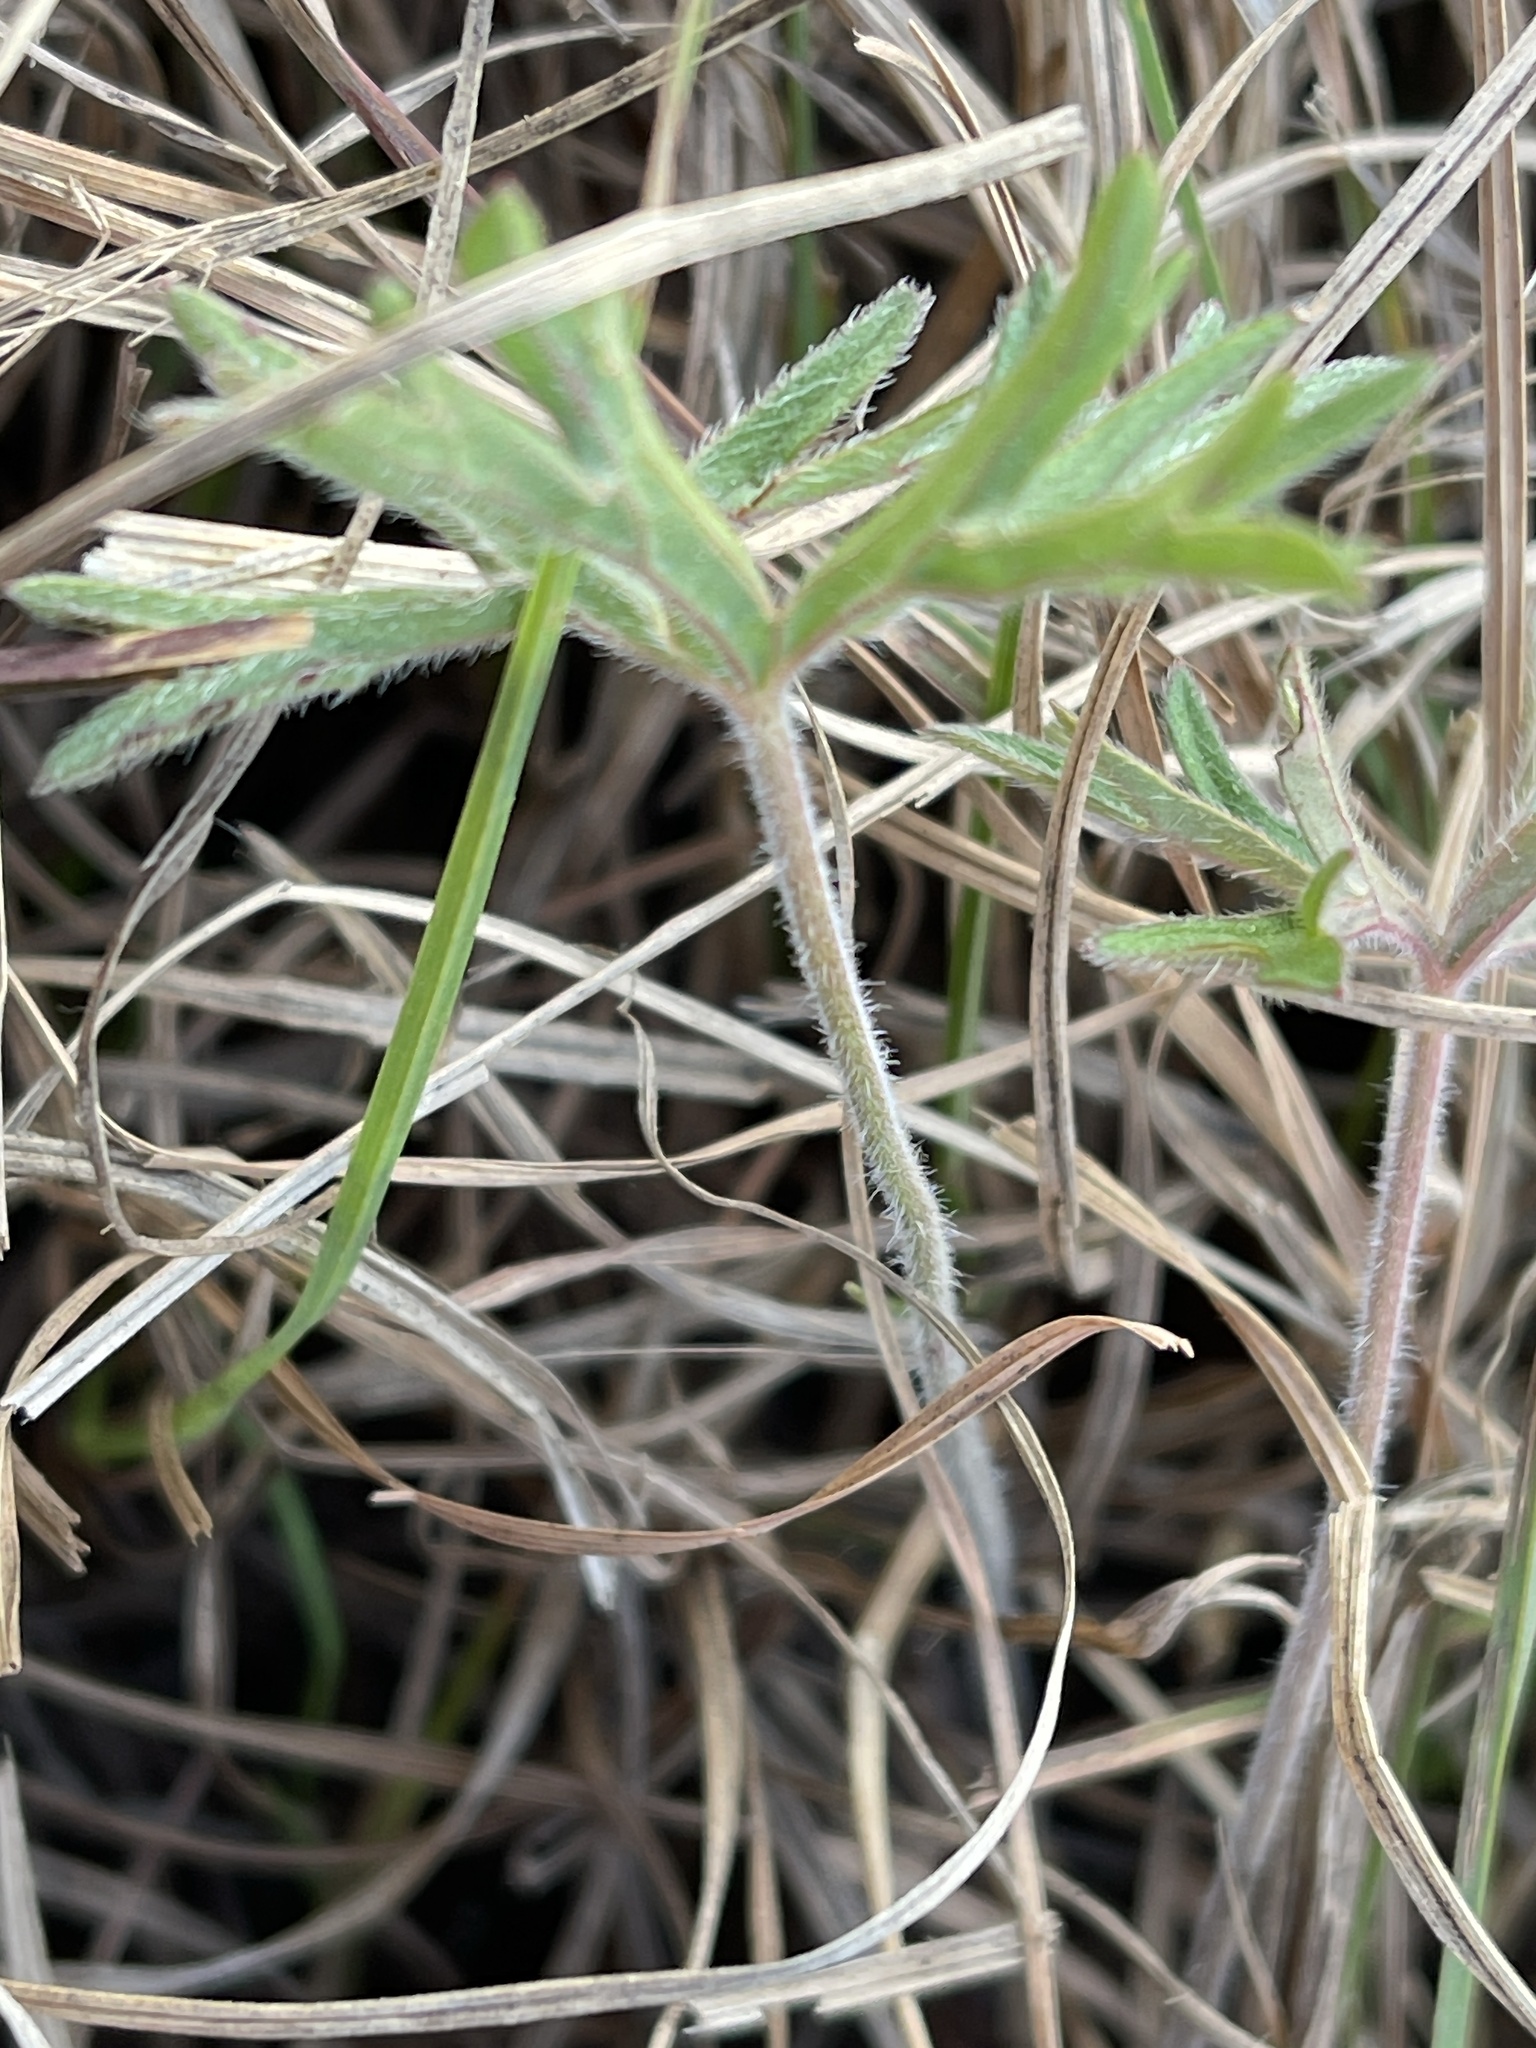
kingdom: Plantae
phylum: Tracheophyta
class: Magnoliopsida
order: Geraniales
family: Geraniaceae
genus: Geranium
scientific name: Geranium retrorsum
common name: New zealand geranium
